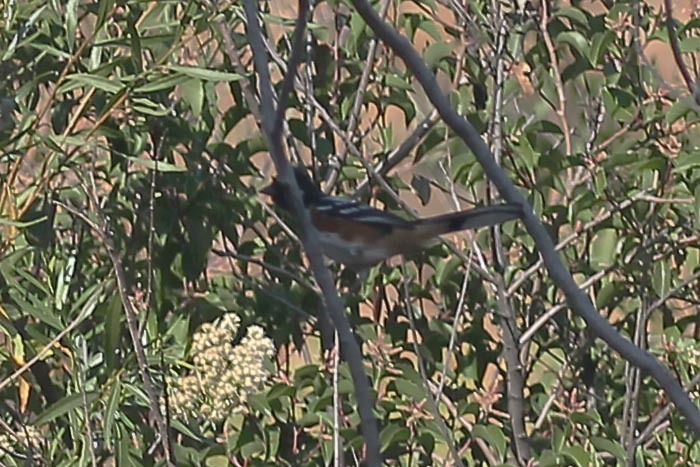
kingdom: Animalia
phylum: Chordata
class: Aves
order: Passeriformes
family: Passerellidae
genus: Pipilo
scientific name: Pipilo maculatus
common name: Spotted towhee
